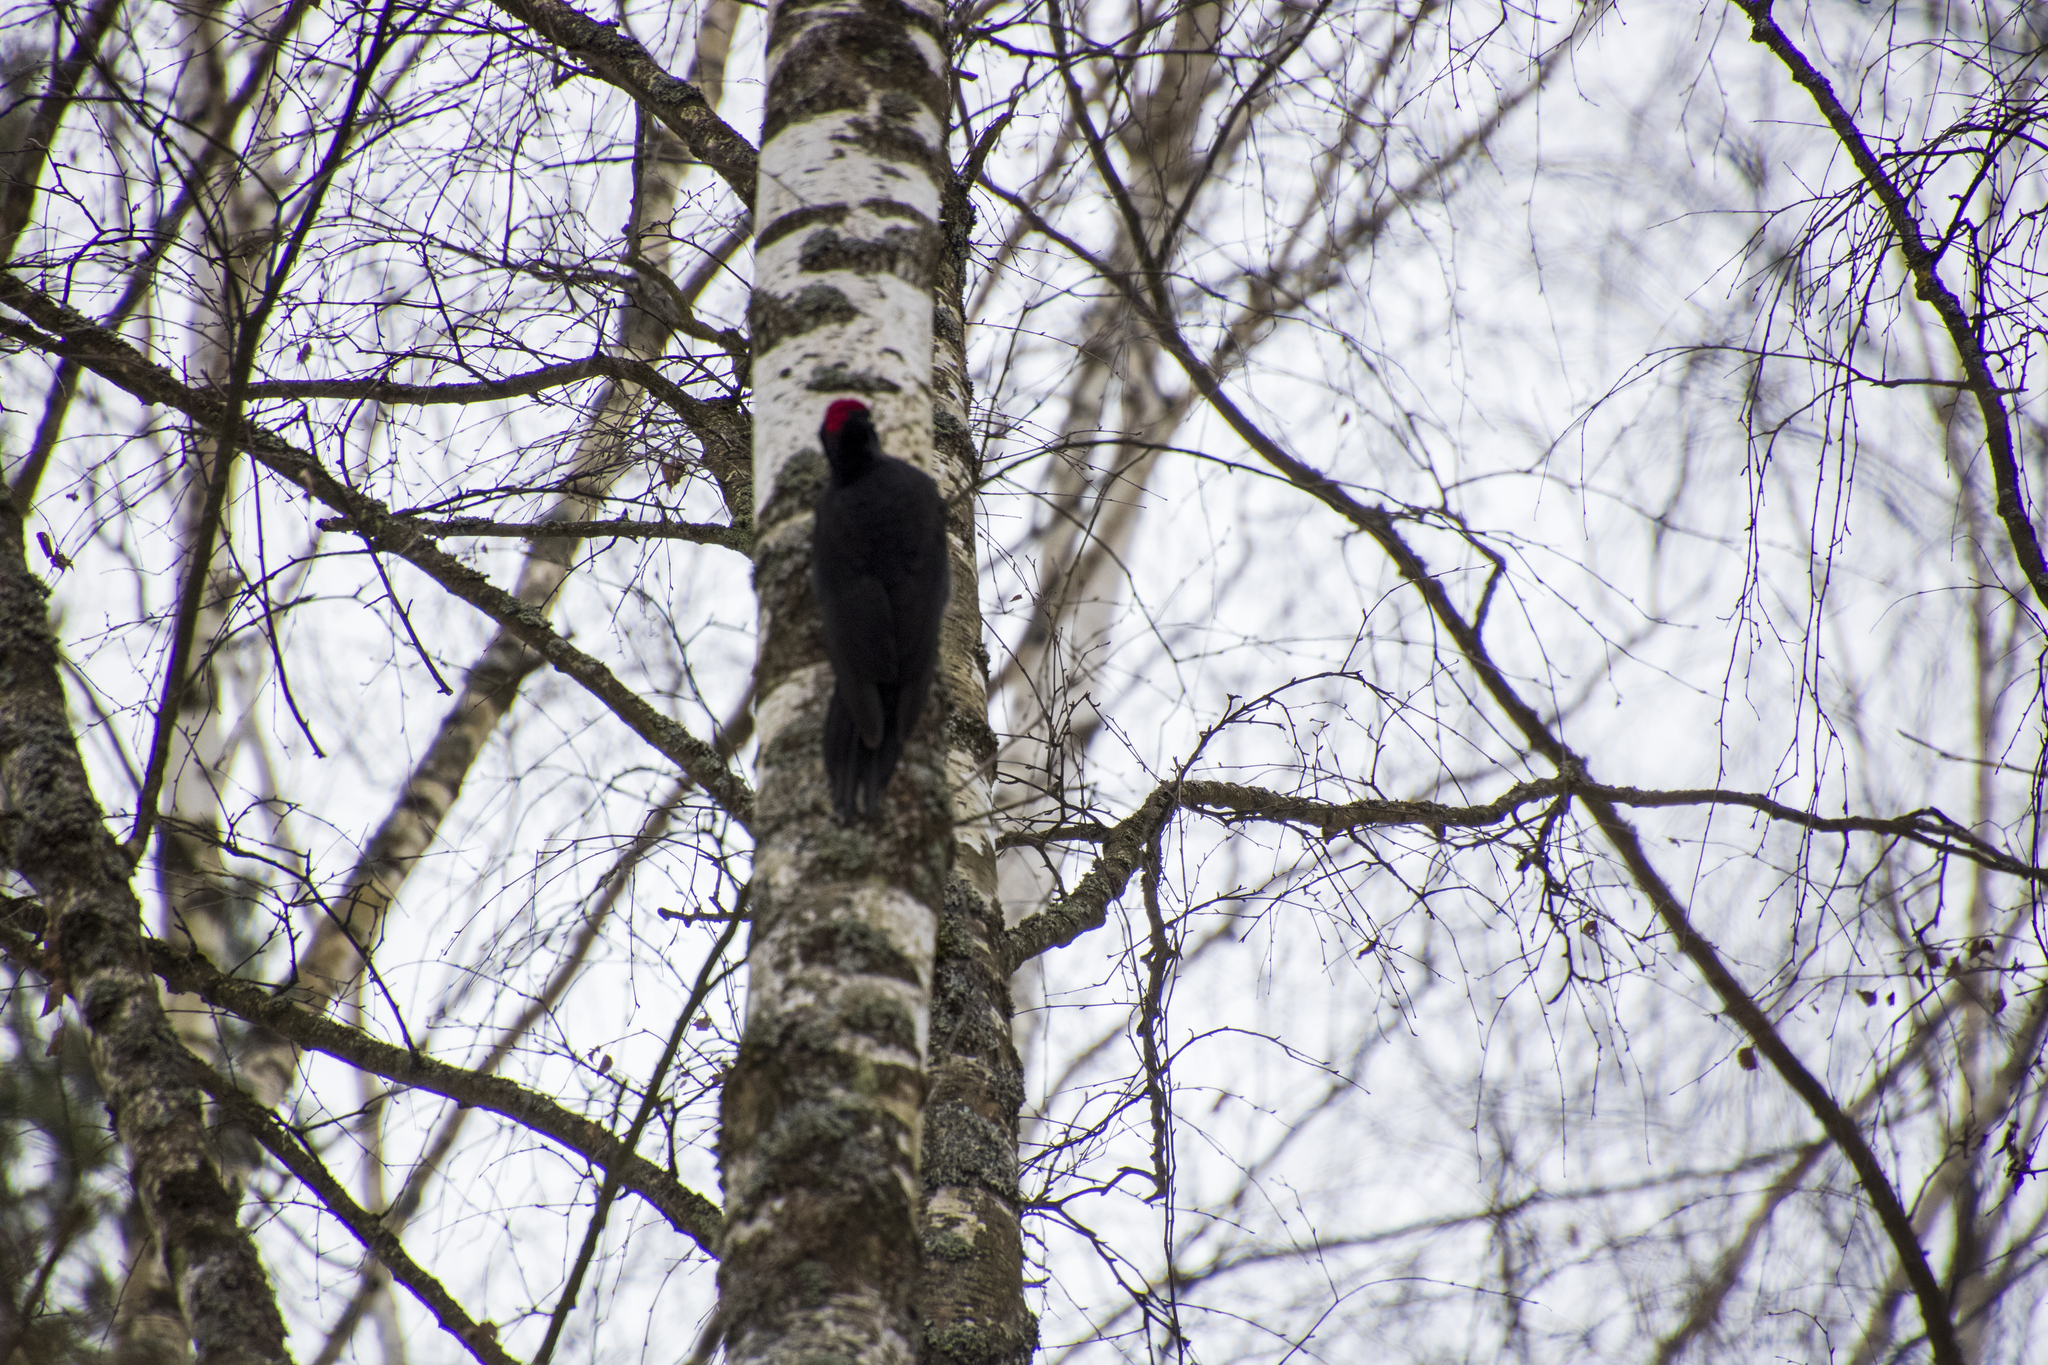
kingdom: Animalia
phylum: Chordata
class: Aves
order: Piciformes
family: Picidae
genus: Dryocopus
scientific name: Dryocopus martius
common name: Black woodpecker
